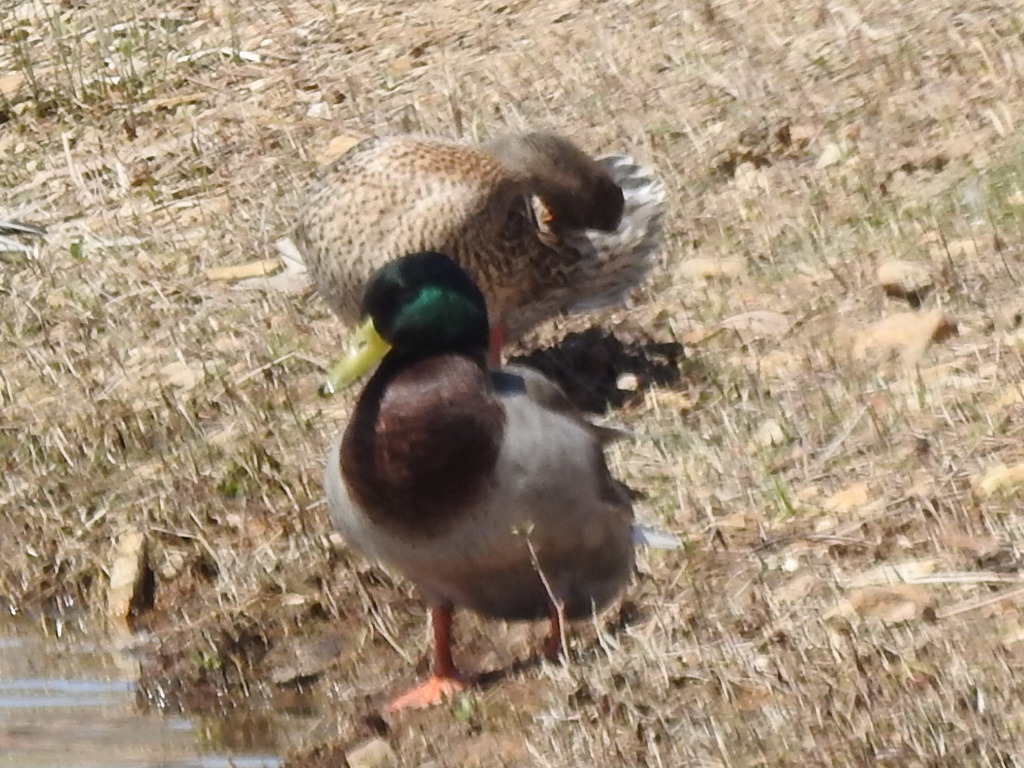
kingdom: Animalia
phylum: Chordata
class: Aves
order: Anseriformes
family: Anatidae
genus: Anas
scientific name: Anas platyrhynchos
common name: Mallard
